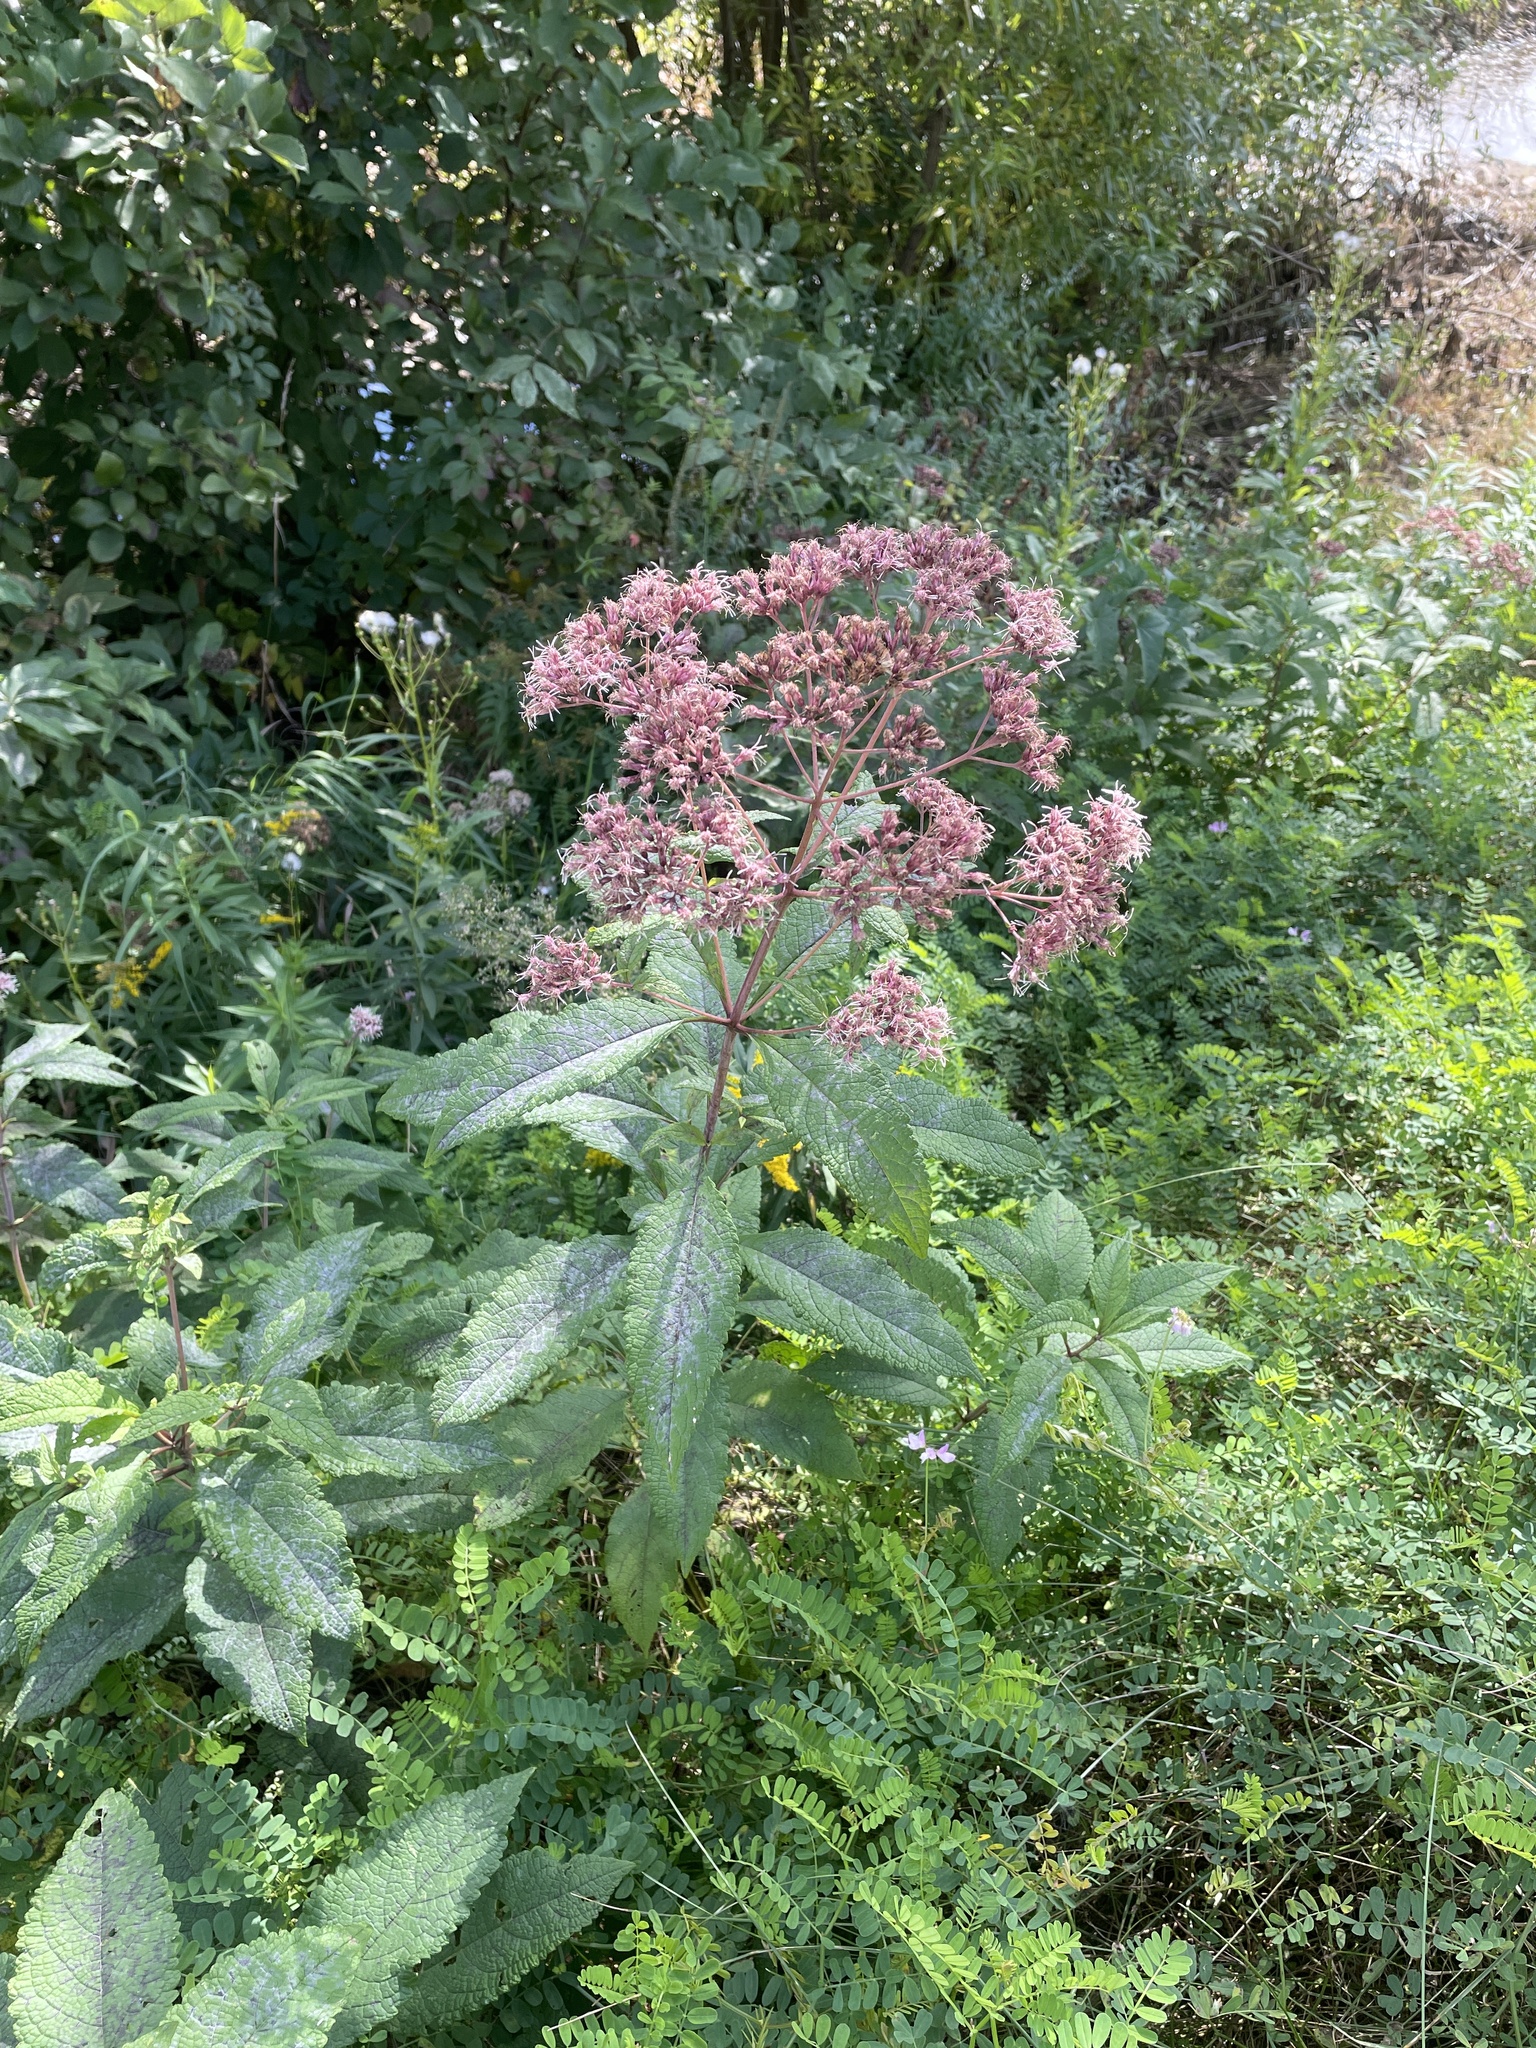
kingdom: Plantae
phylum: Tracheophyta
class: Magnoliopsida
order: Asterales
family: Asteraceae
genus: Eutrochium
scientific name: Eutrochium maculatum
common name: Spotted joe pye weed
